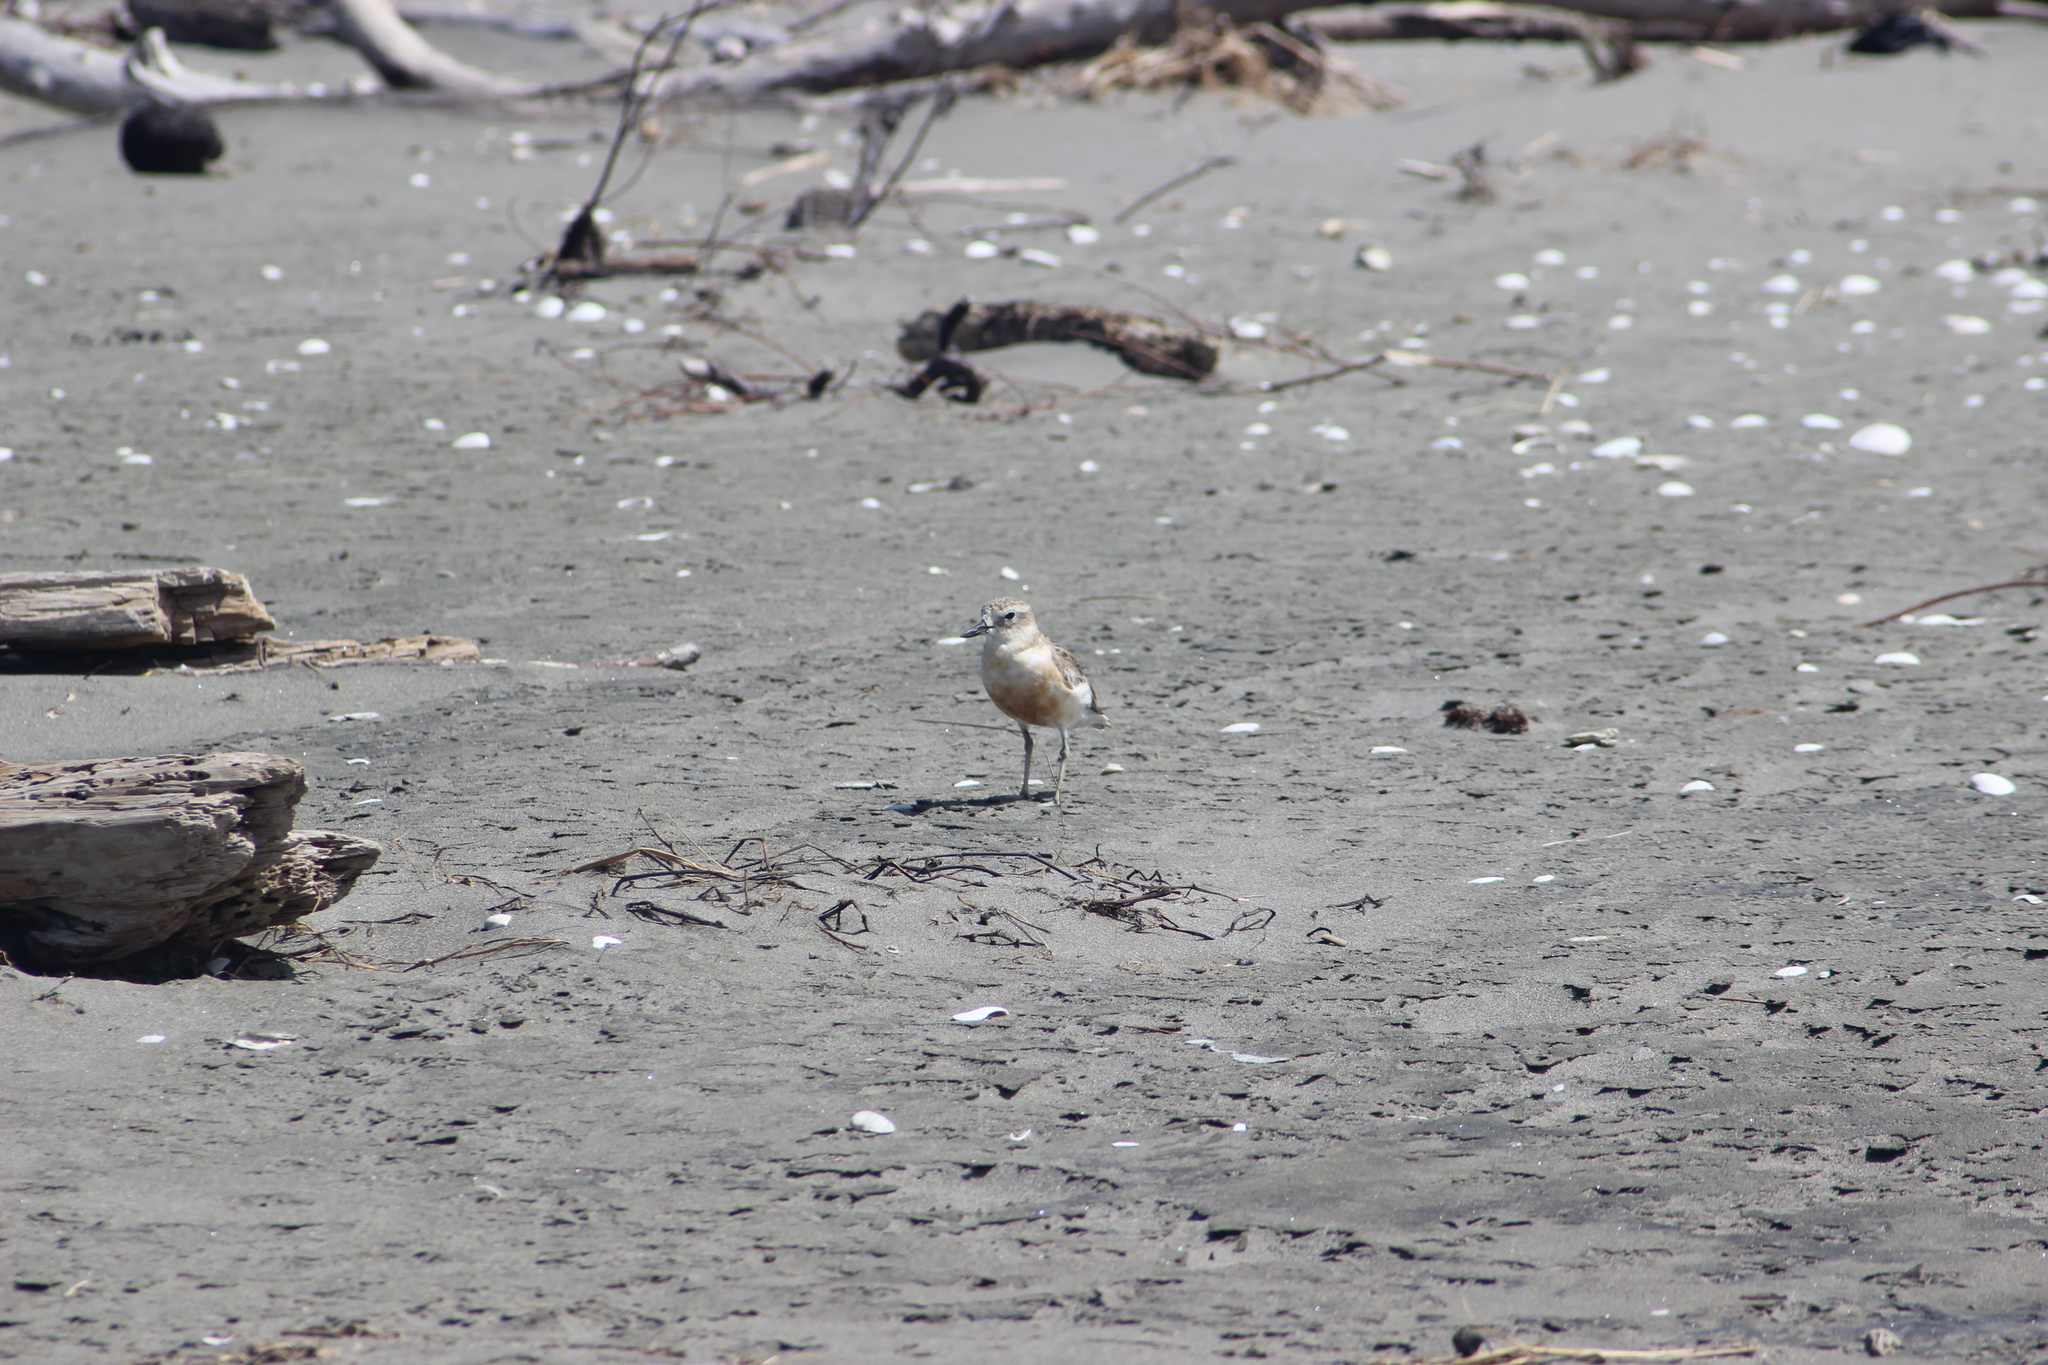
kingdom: Animalia
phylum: Chordata
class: Aves
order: Charadriiformes
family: Charadriidae
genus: Anarhynchus
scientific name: Anarhynchus
